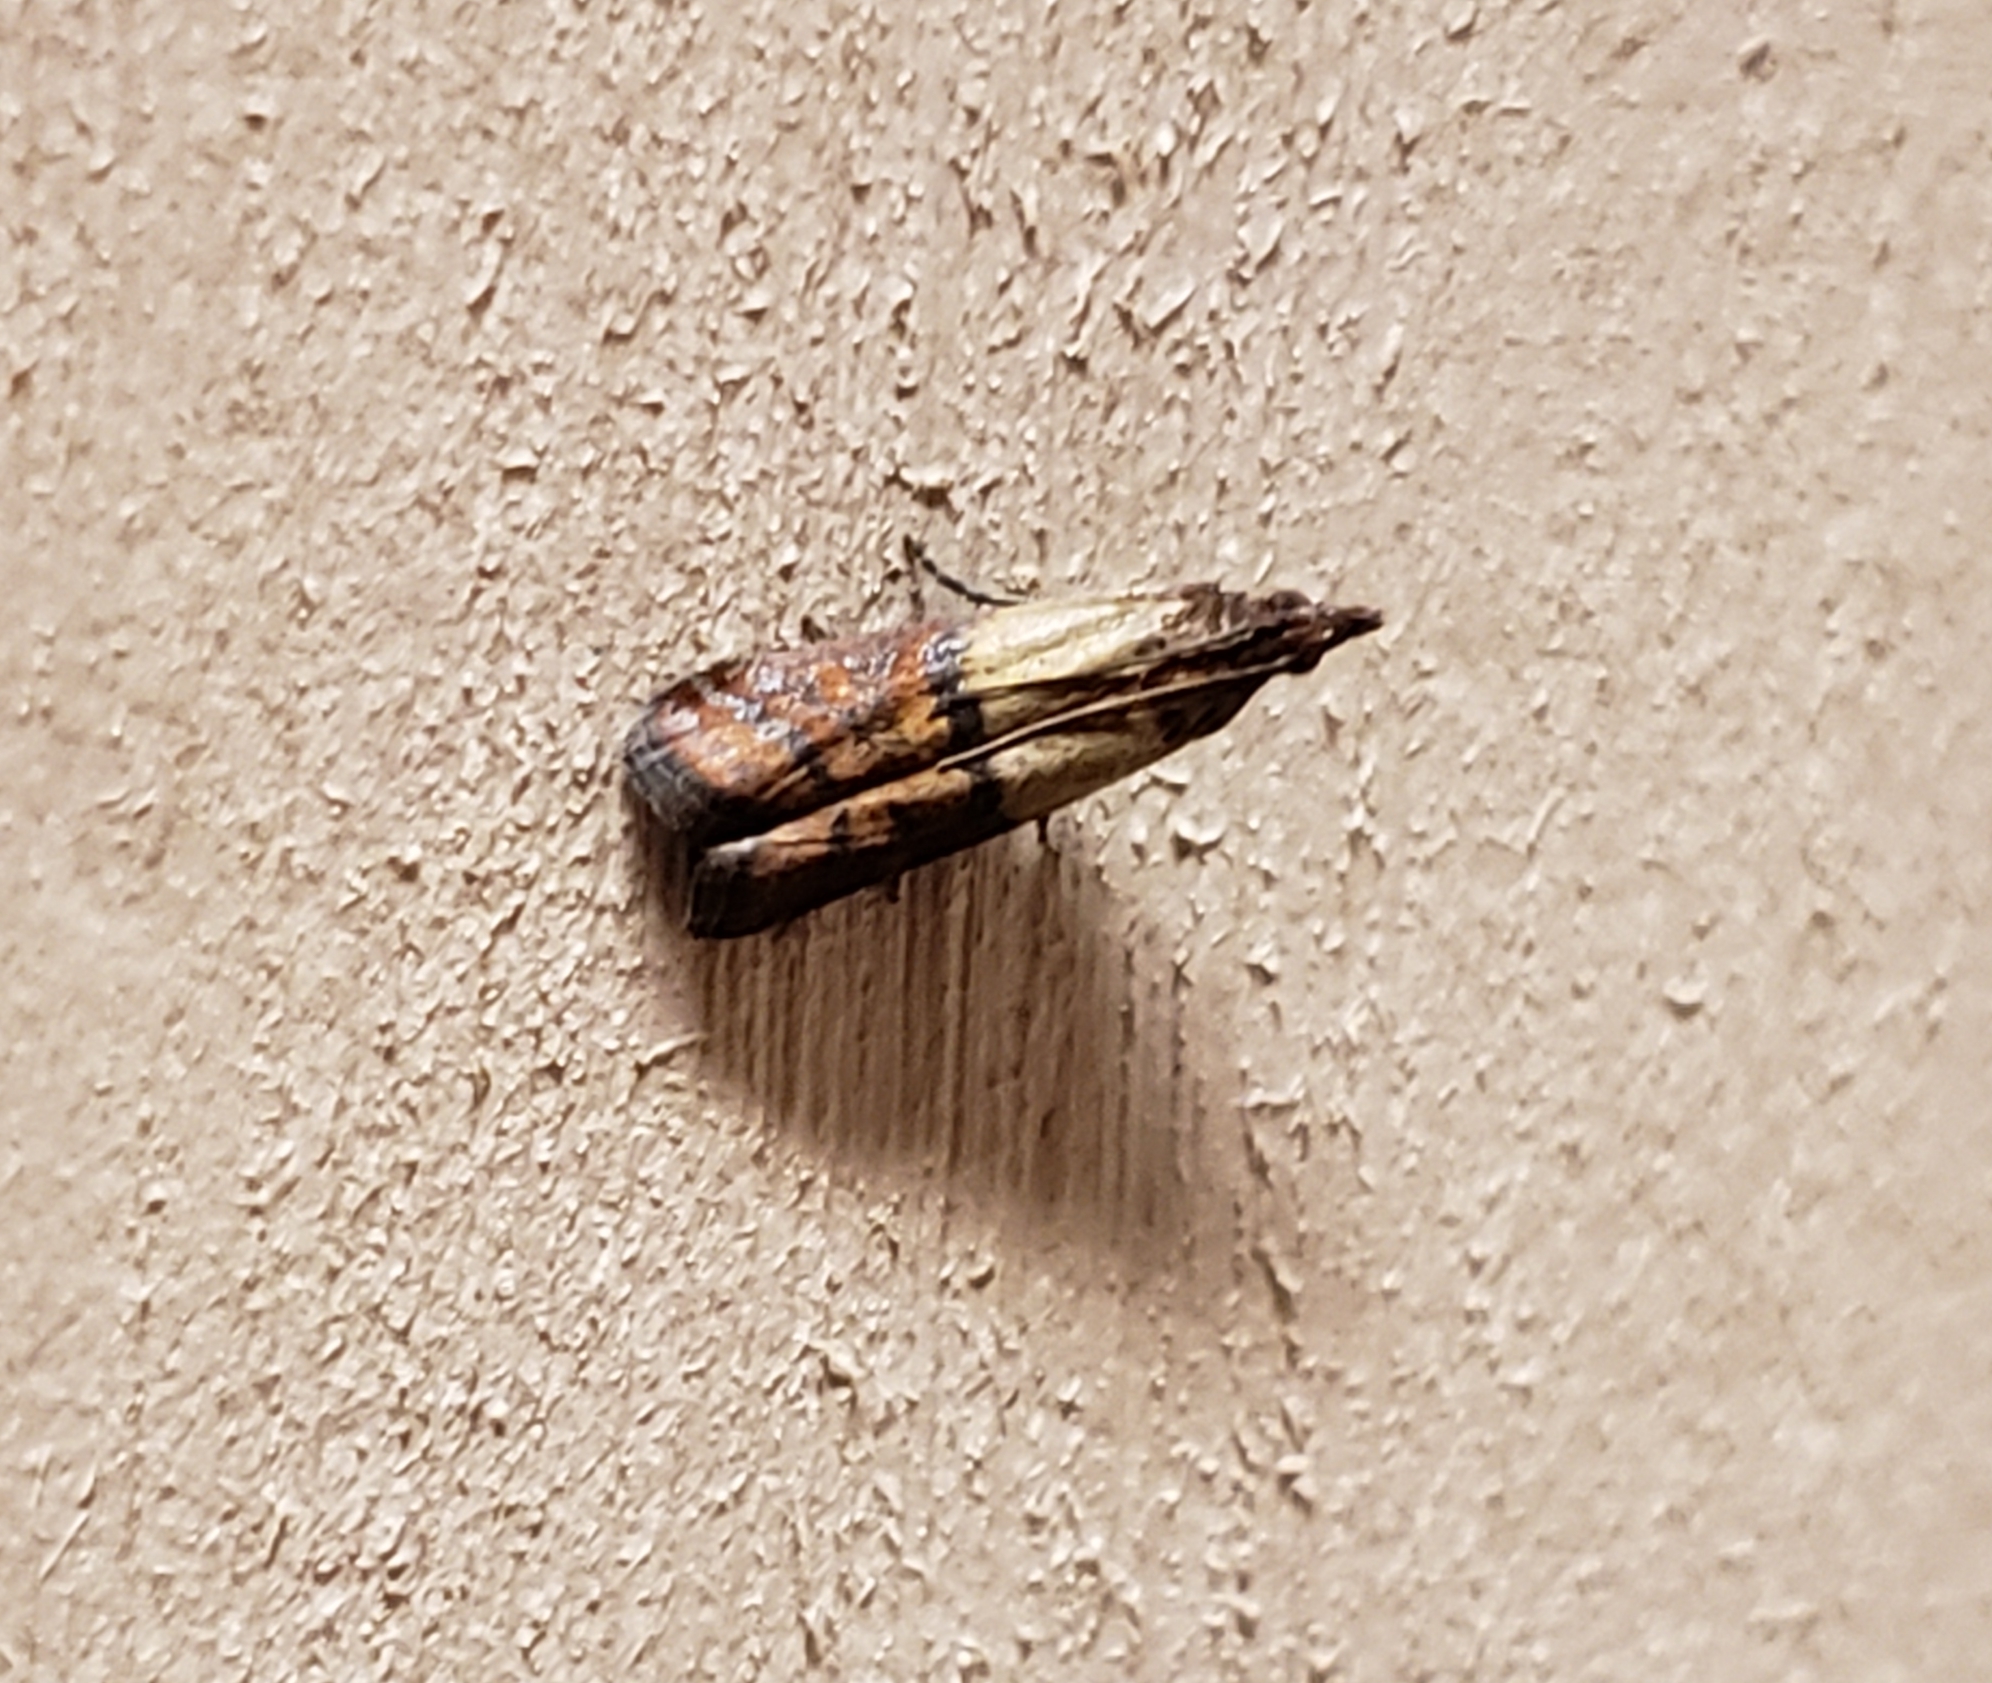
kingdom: Animalia
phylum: Arthropoda
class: Insecta
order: Lepidoptera
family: Pyralidae
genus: Plodia
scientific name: Plodia interpunctella
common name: Indian meal moth
